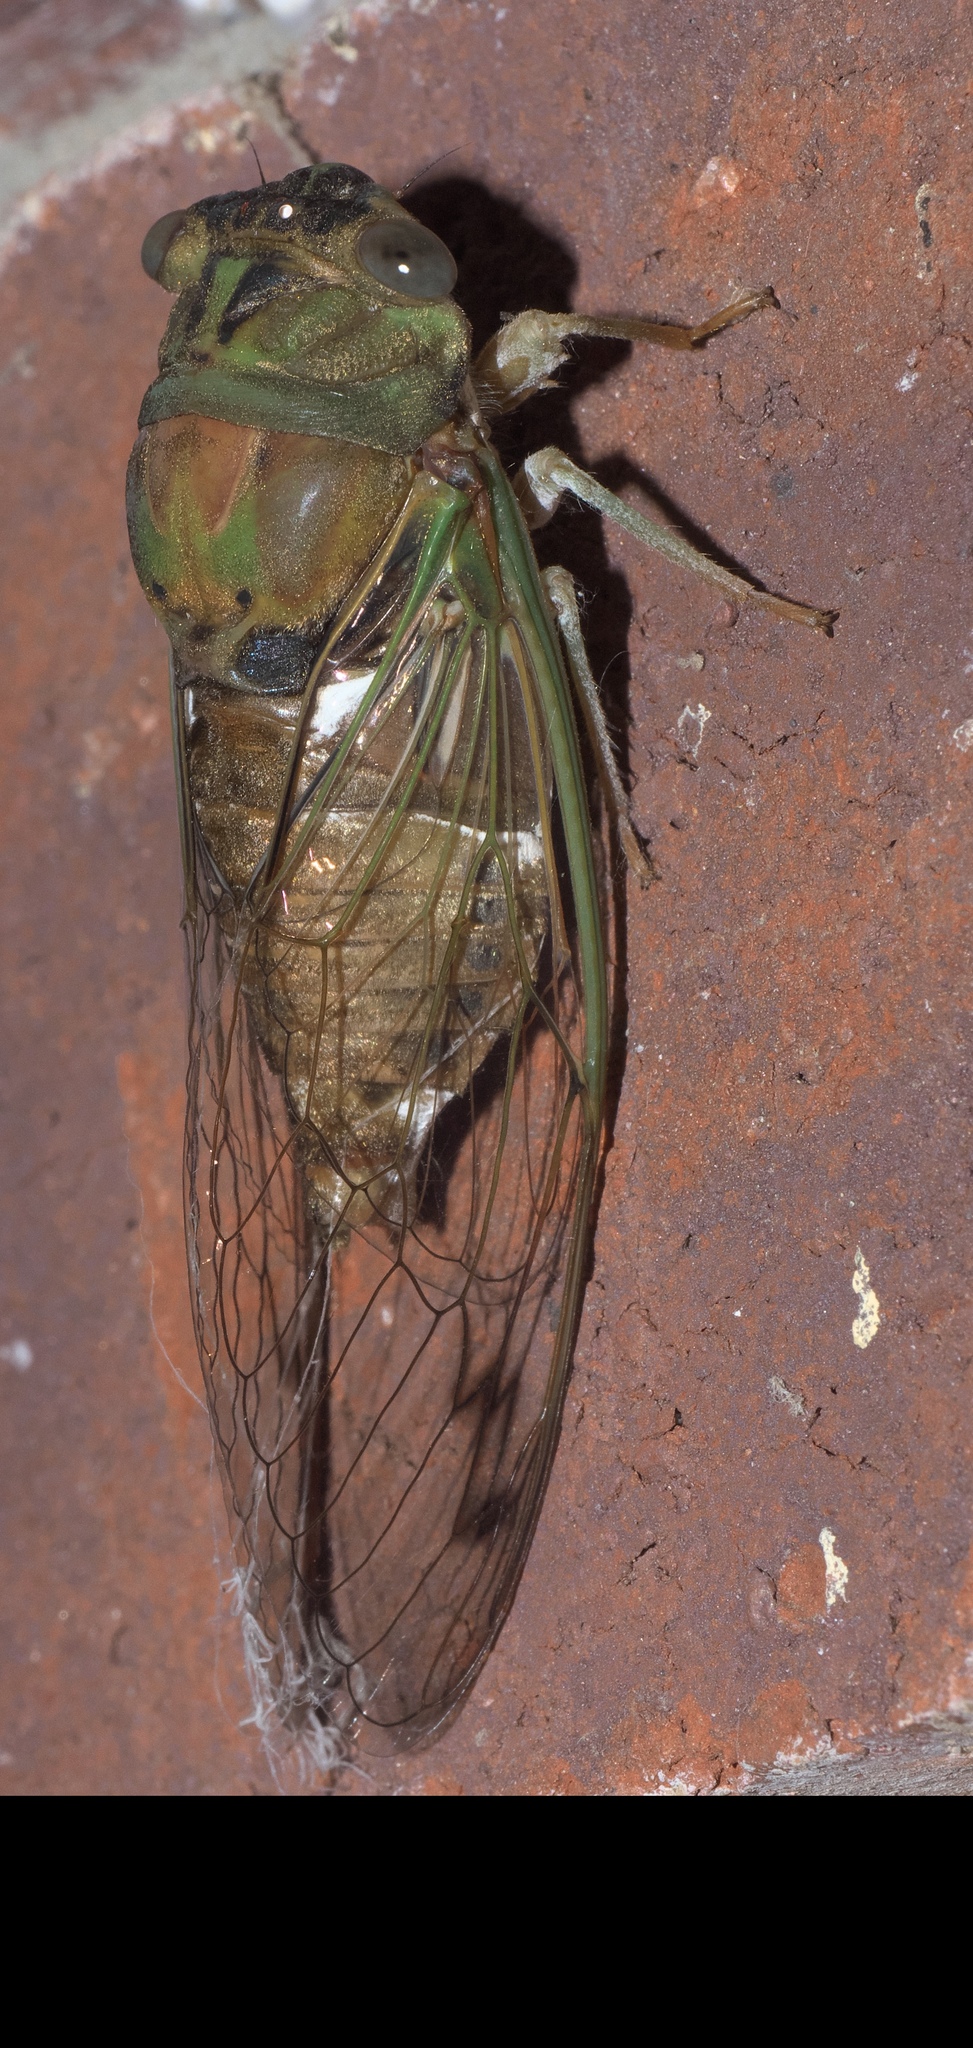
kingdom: Animalia
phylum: Arthropoda
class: Insecta
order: Hemiptera
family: Cicadidae
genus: Neotibicen
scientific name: Neotibicen pruinosus
